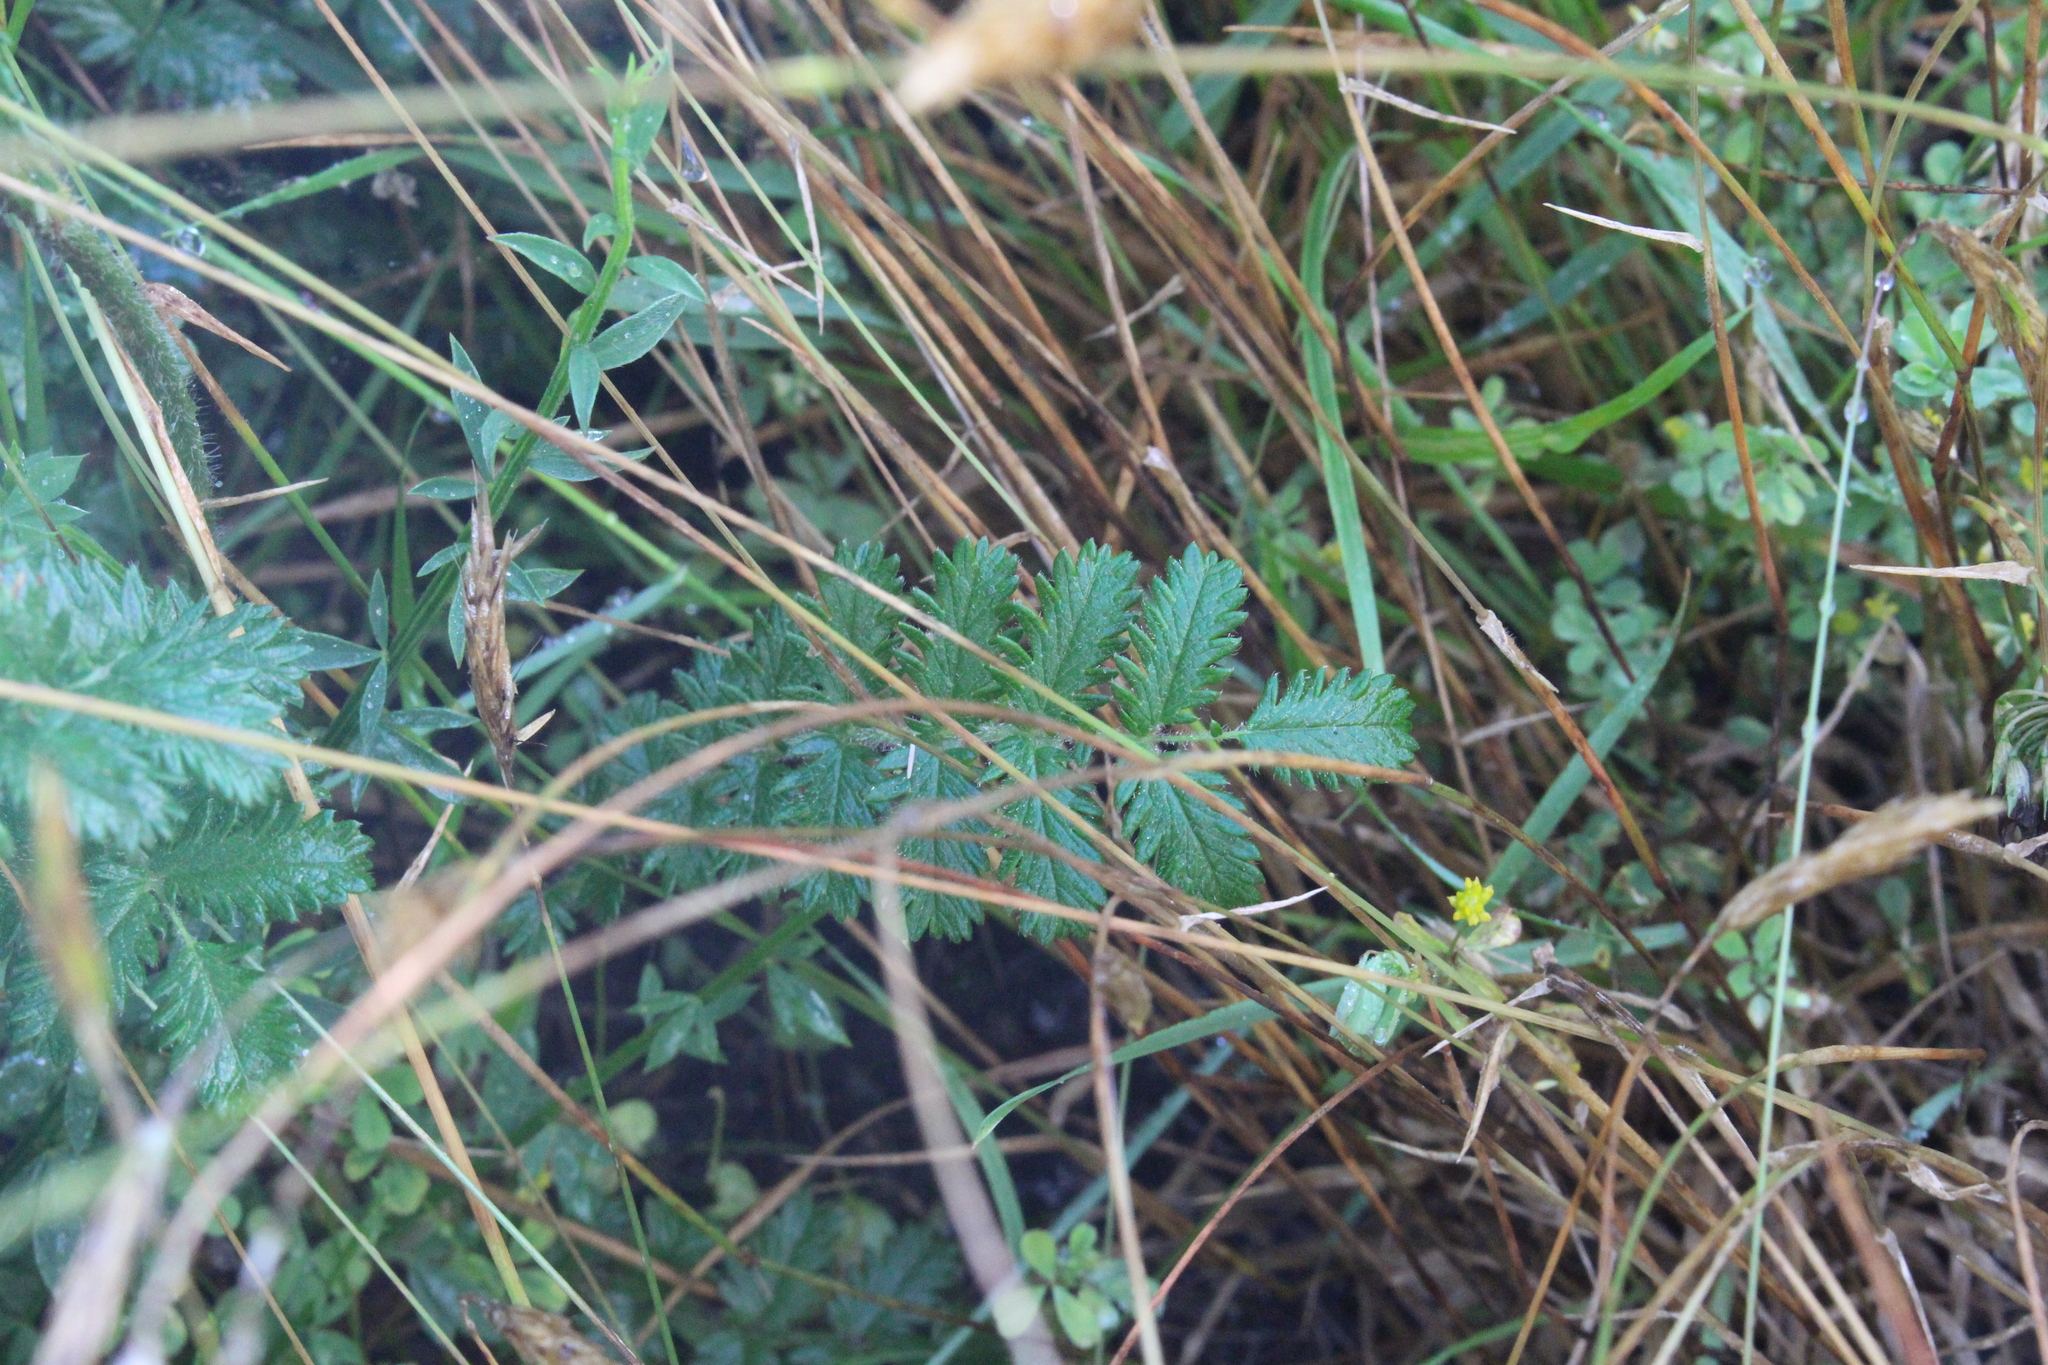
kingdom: Plantae
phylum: Tracheophyta
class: Magnoliopsida
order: Rosales
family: Rosaceae
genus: Acaena
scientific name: Acaena agnipila
